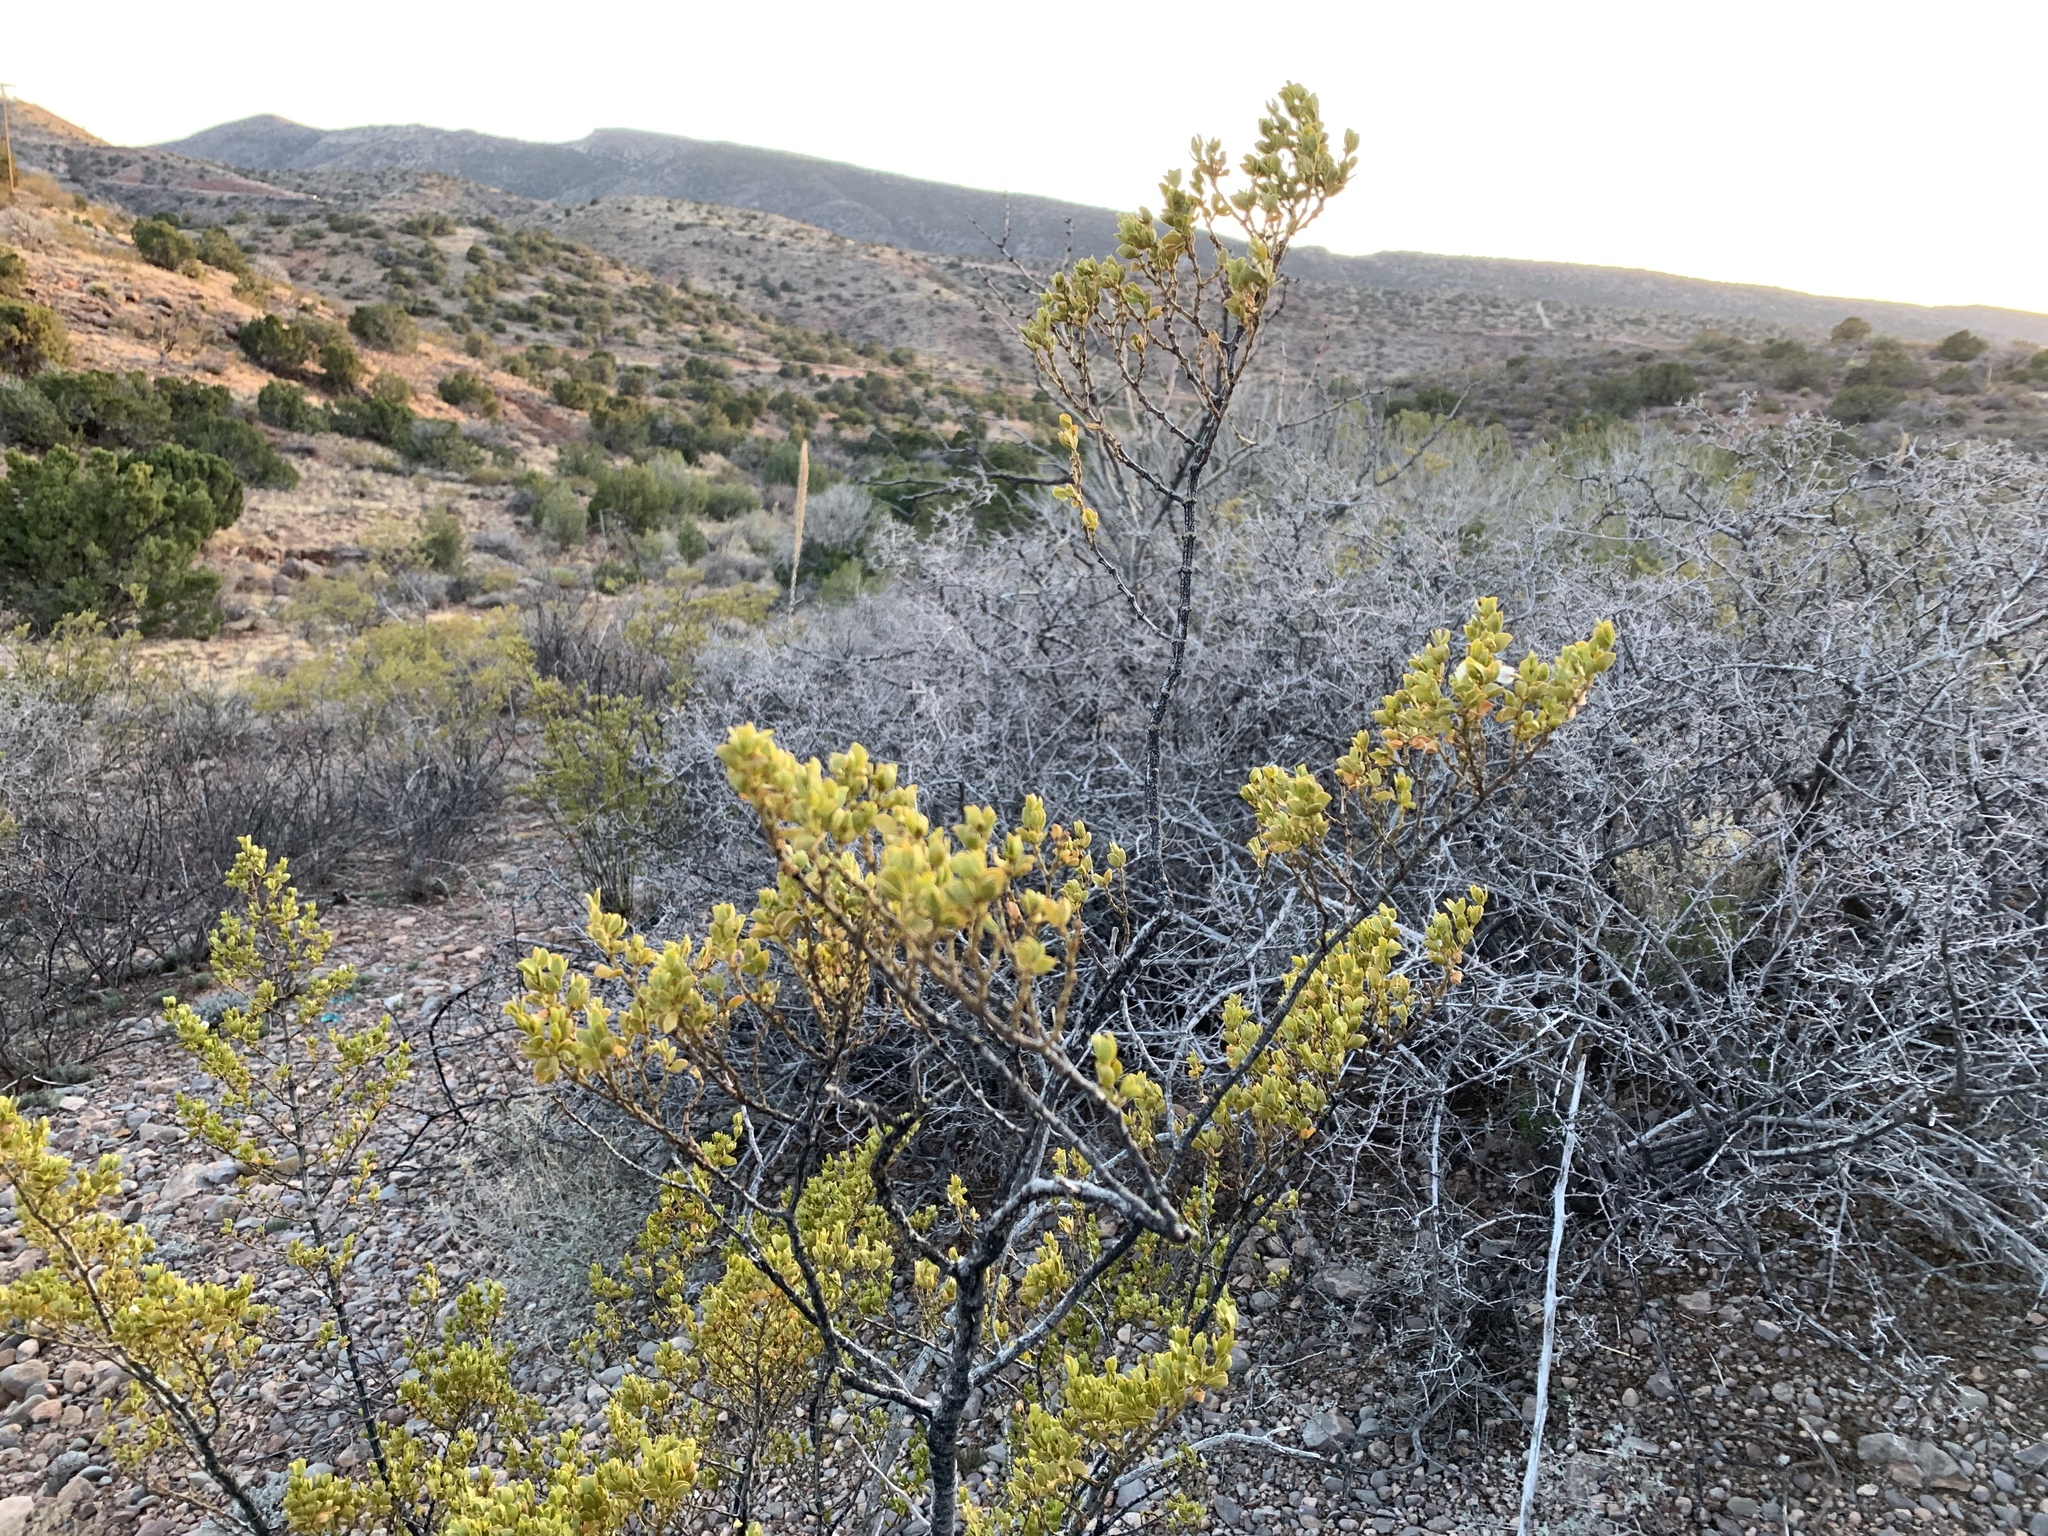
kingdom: Plantae
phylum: Tracheophyta
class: Magnoliopsida
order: Zygophyllales
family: Zygophyllaceae
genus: Larrea
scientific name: Larrea tridentata
